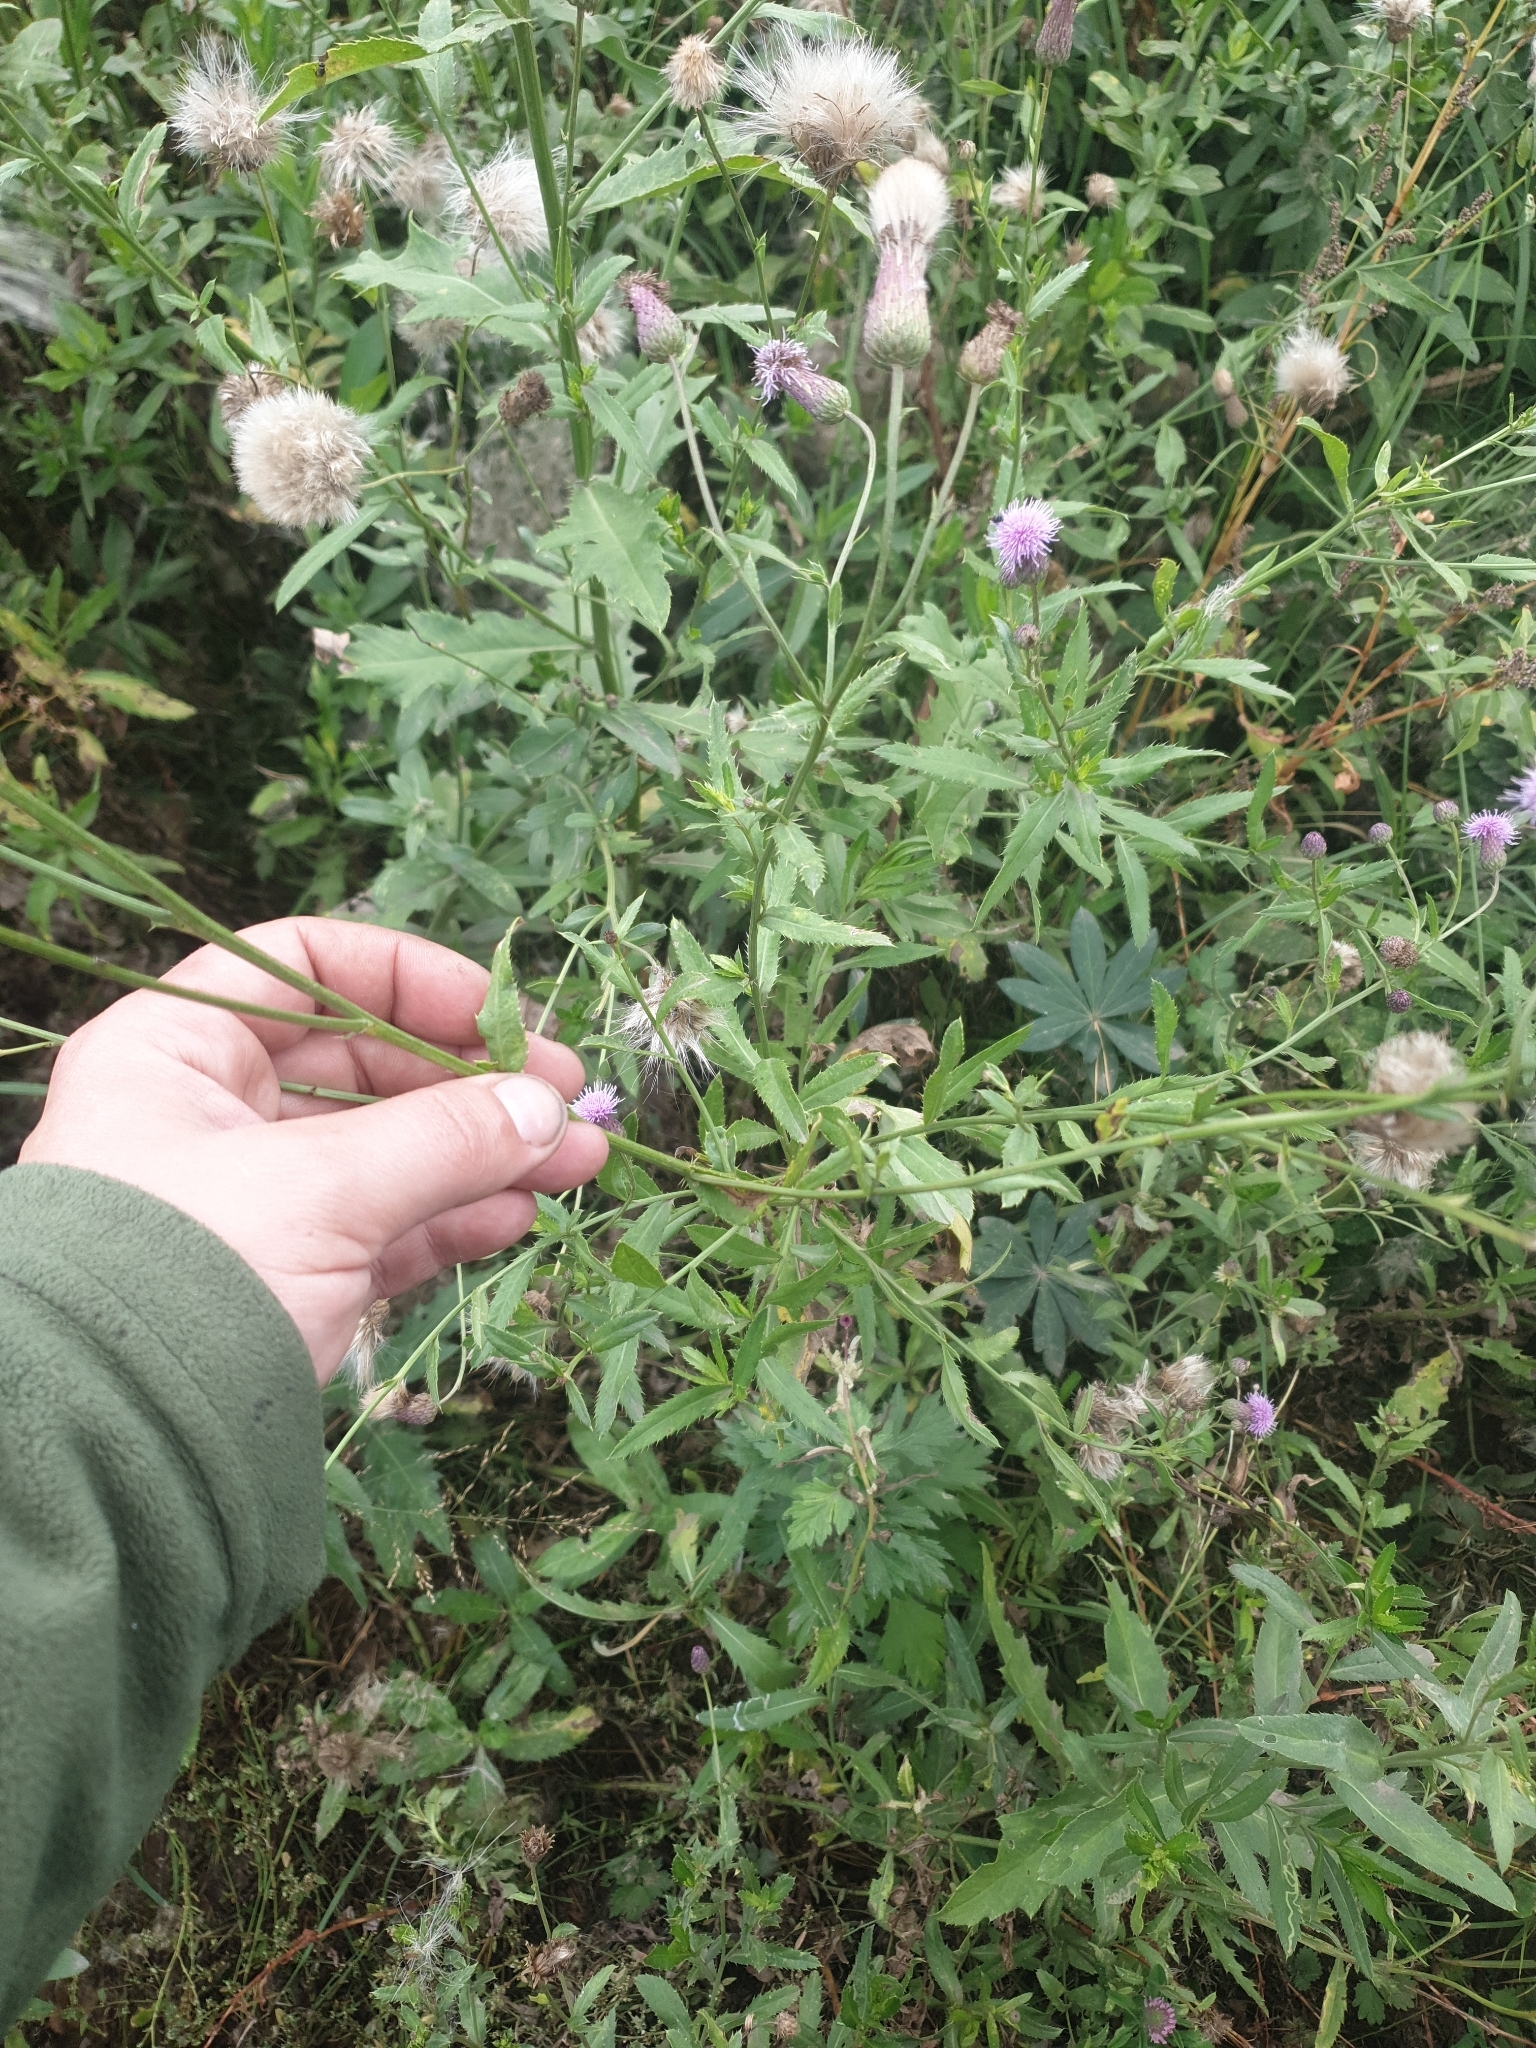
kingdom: Plantae
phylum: Tracheophyta
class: Magnoliopsida
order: Asterales
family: Asteraceae
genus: Cirsium
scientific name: Cirsium arvense
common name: Creeping thistle
